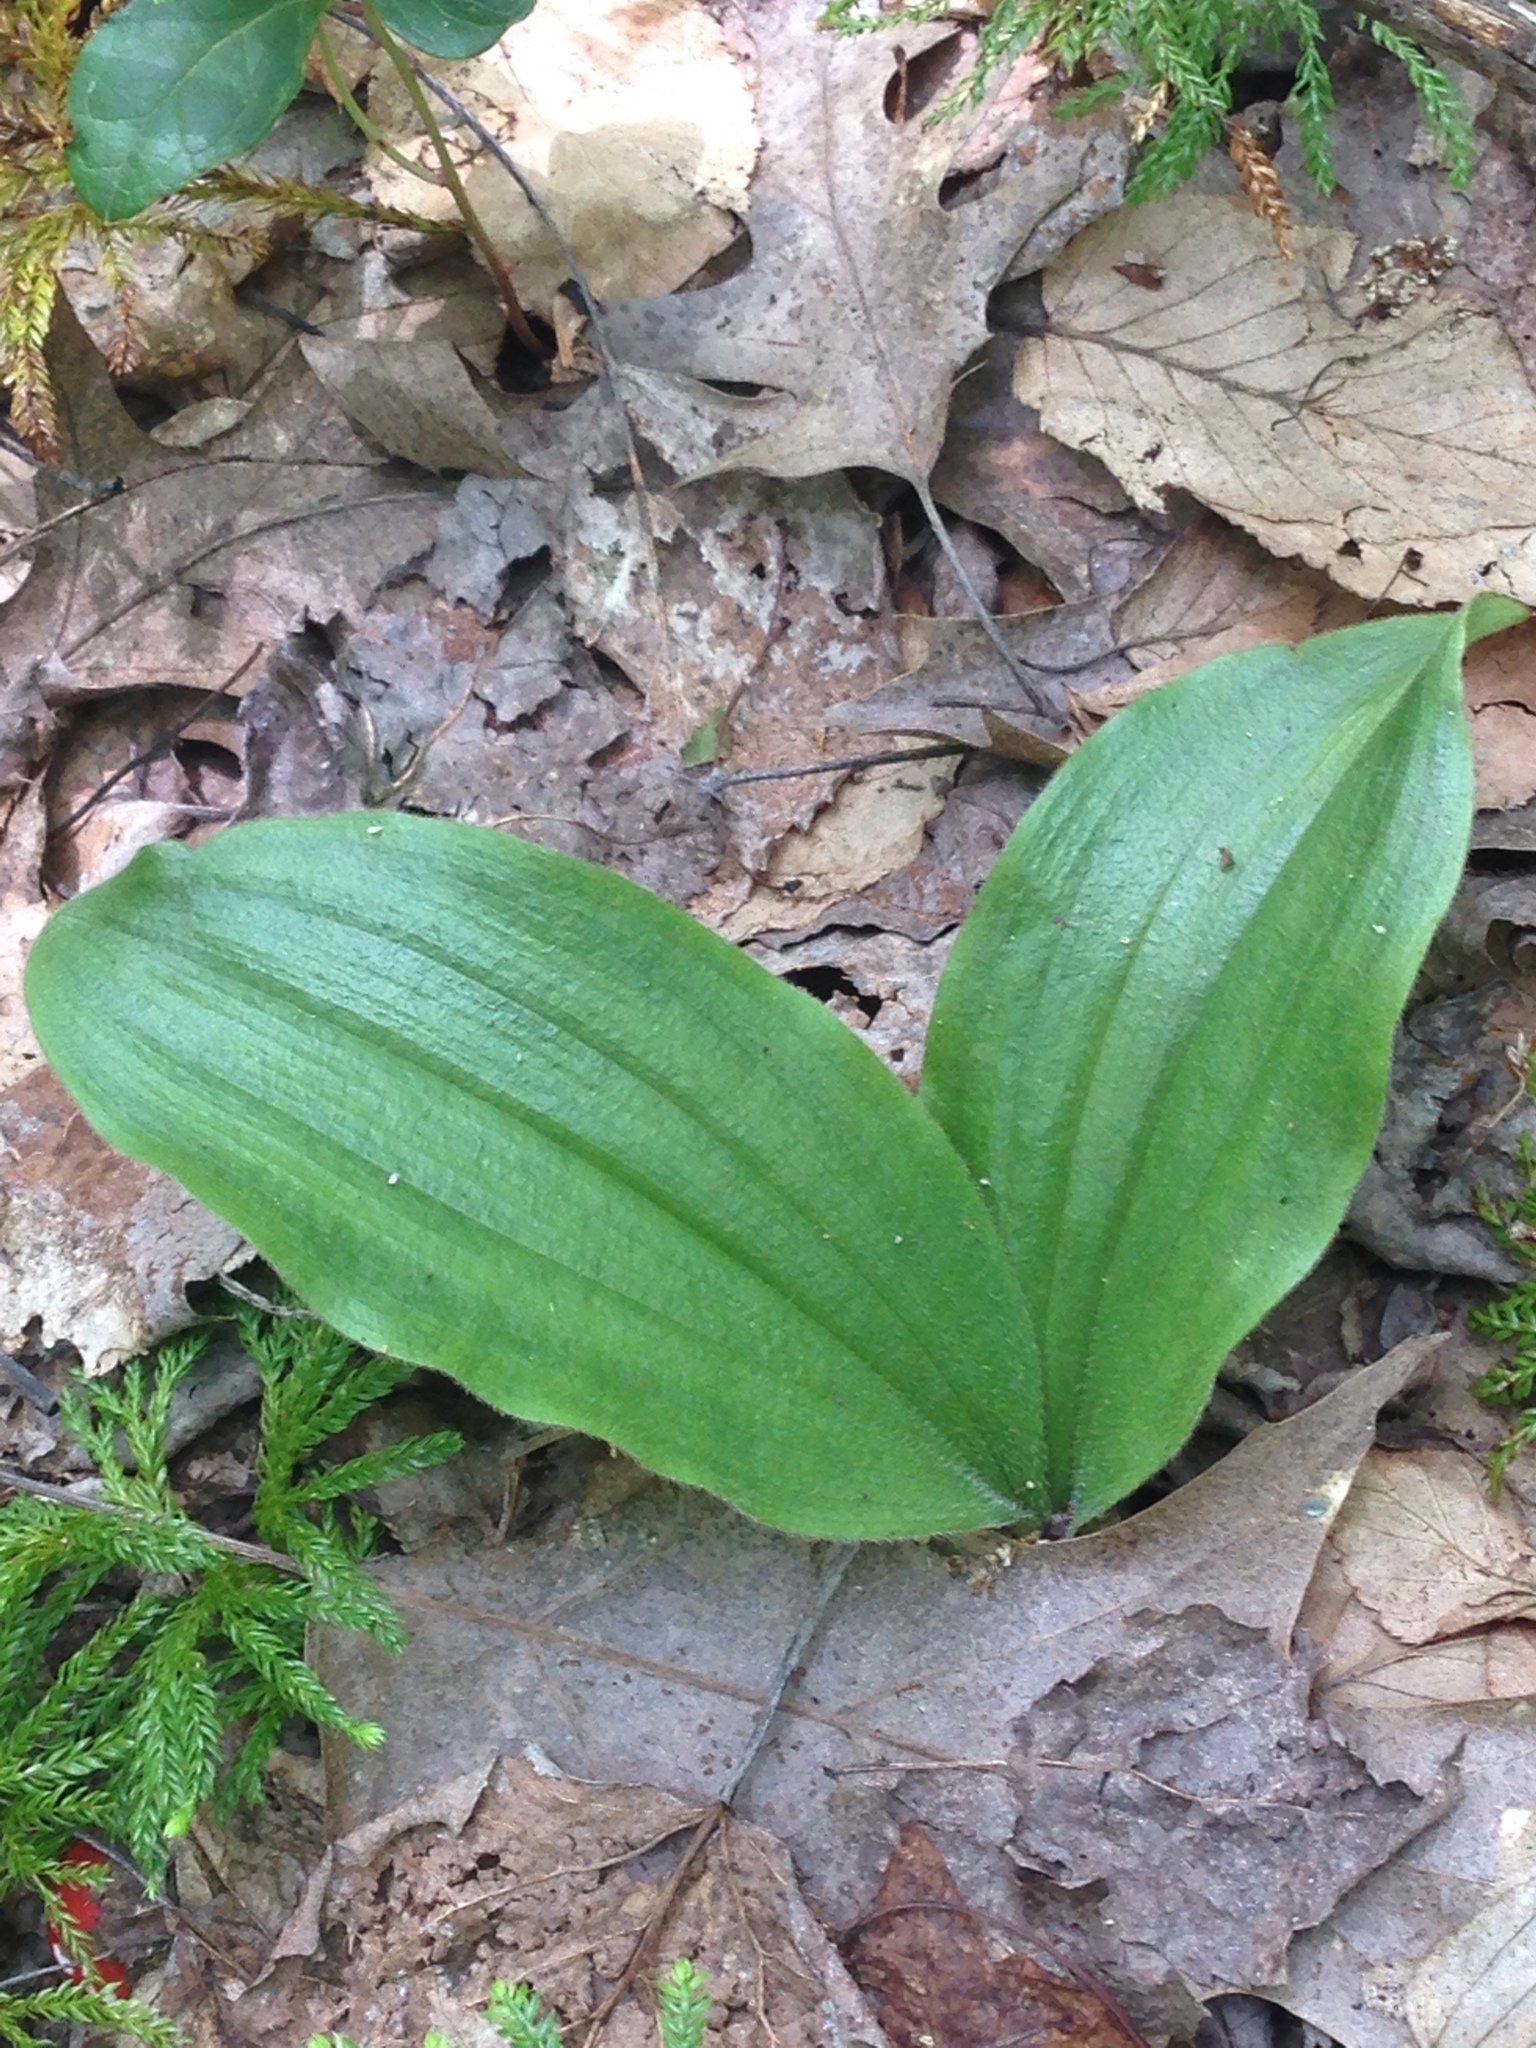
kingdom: Plantae
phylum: Tracheophyta
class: Liliopsida
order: Asparagales
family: Orchidaceae
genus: Cypripedium
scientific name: Cypripedium acaule
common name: Pink lady's-slipper
